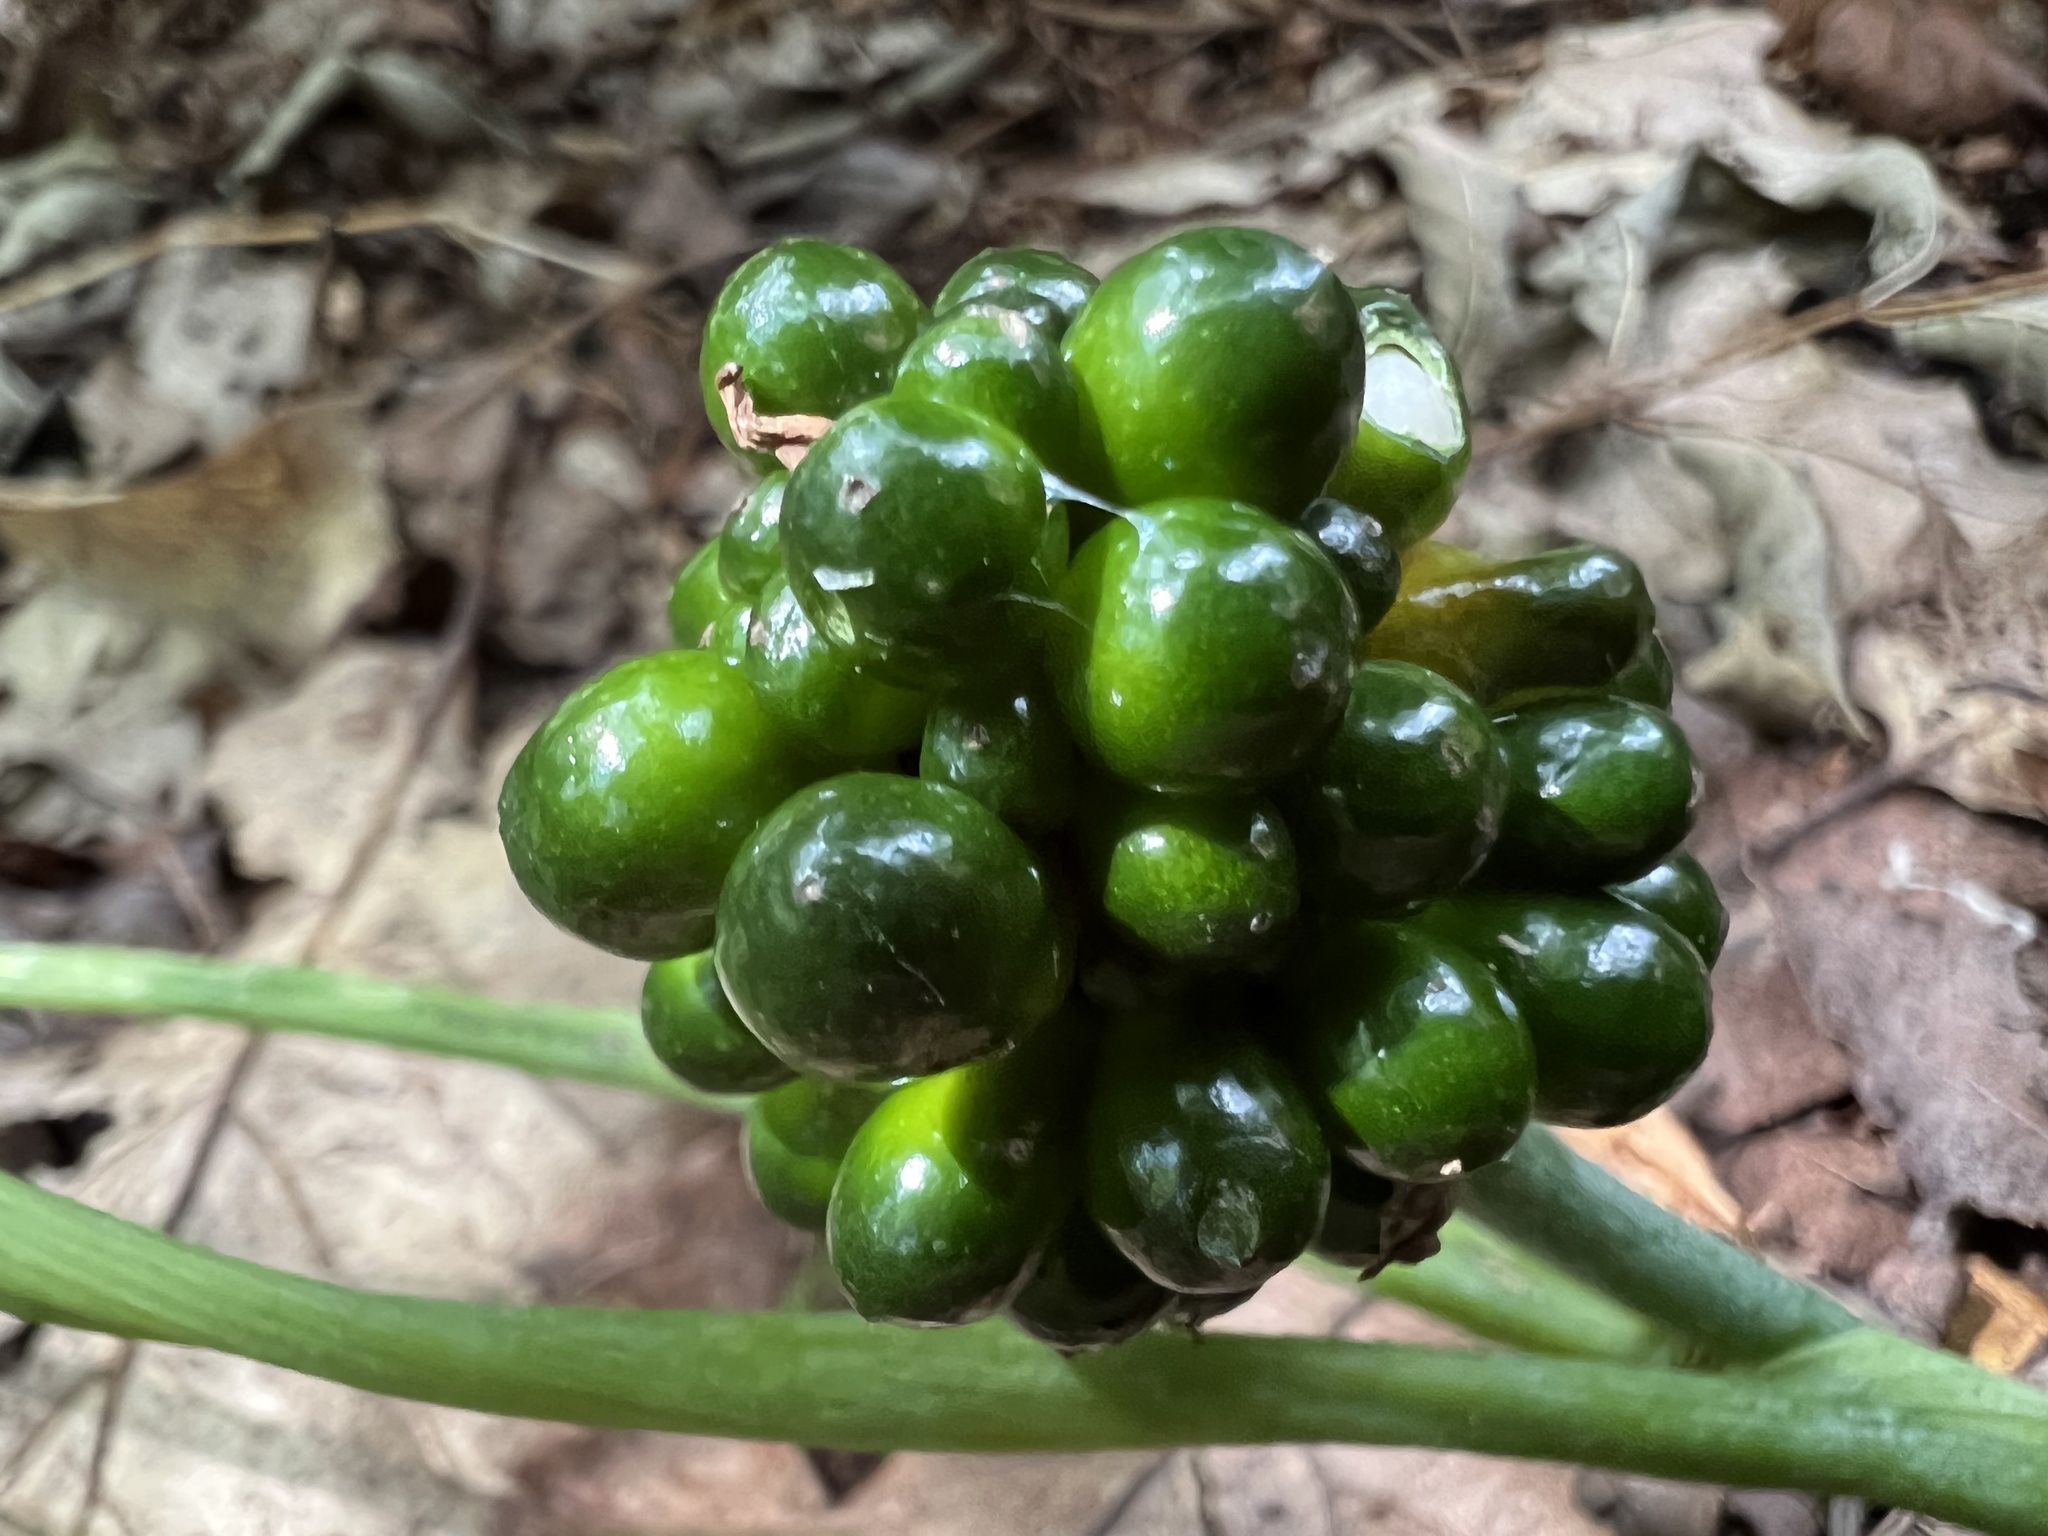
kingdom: Plantae
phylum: Tracheophyta
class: Liliopsida
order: Alismatales
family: Araceae
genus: Arisaema
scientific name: Arisaema triphyllum
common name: Jack-in-the-pulpit
